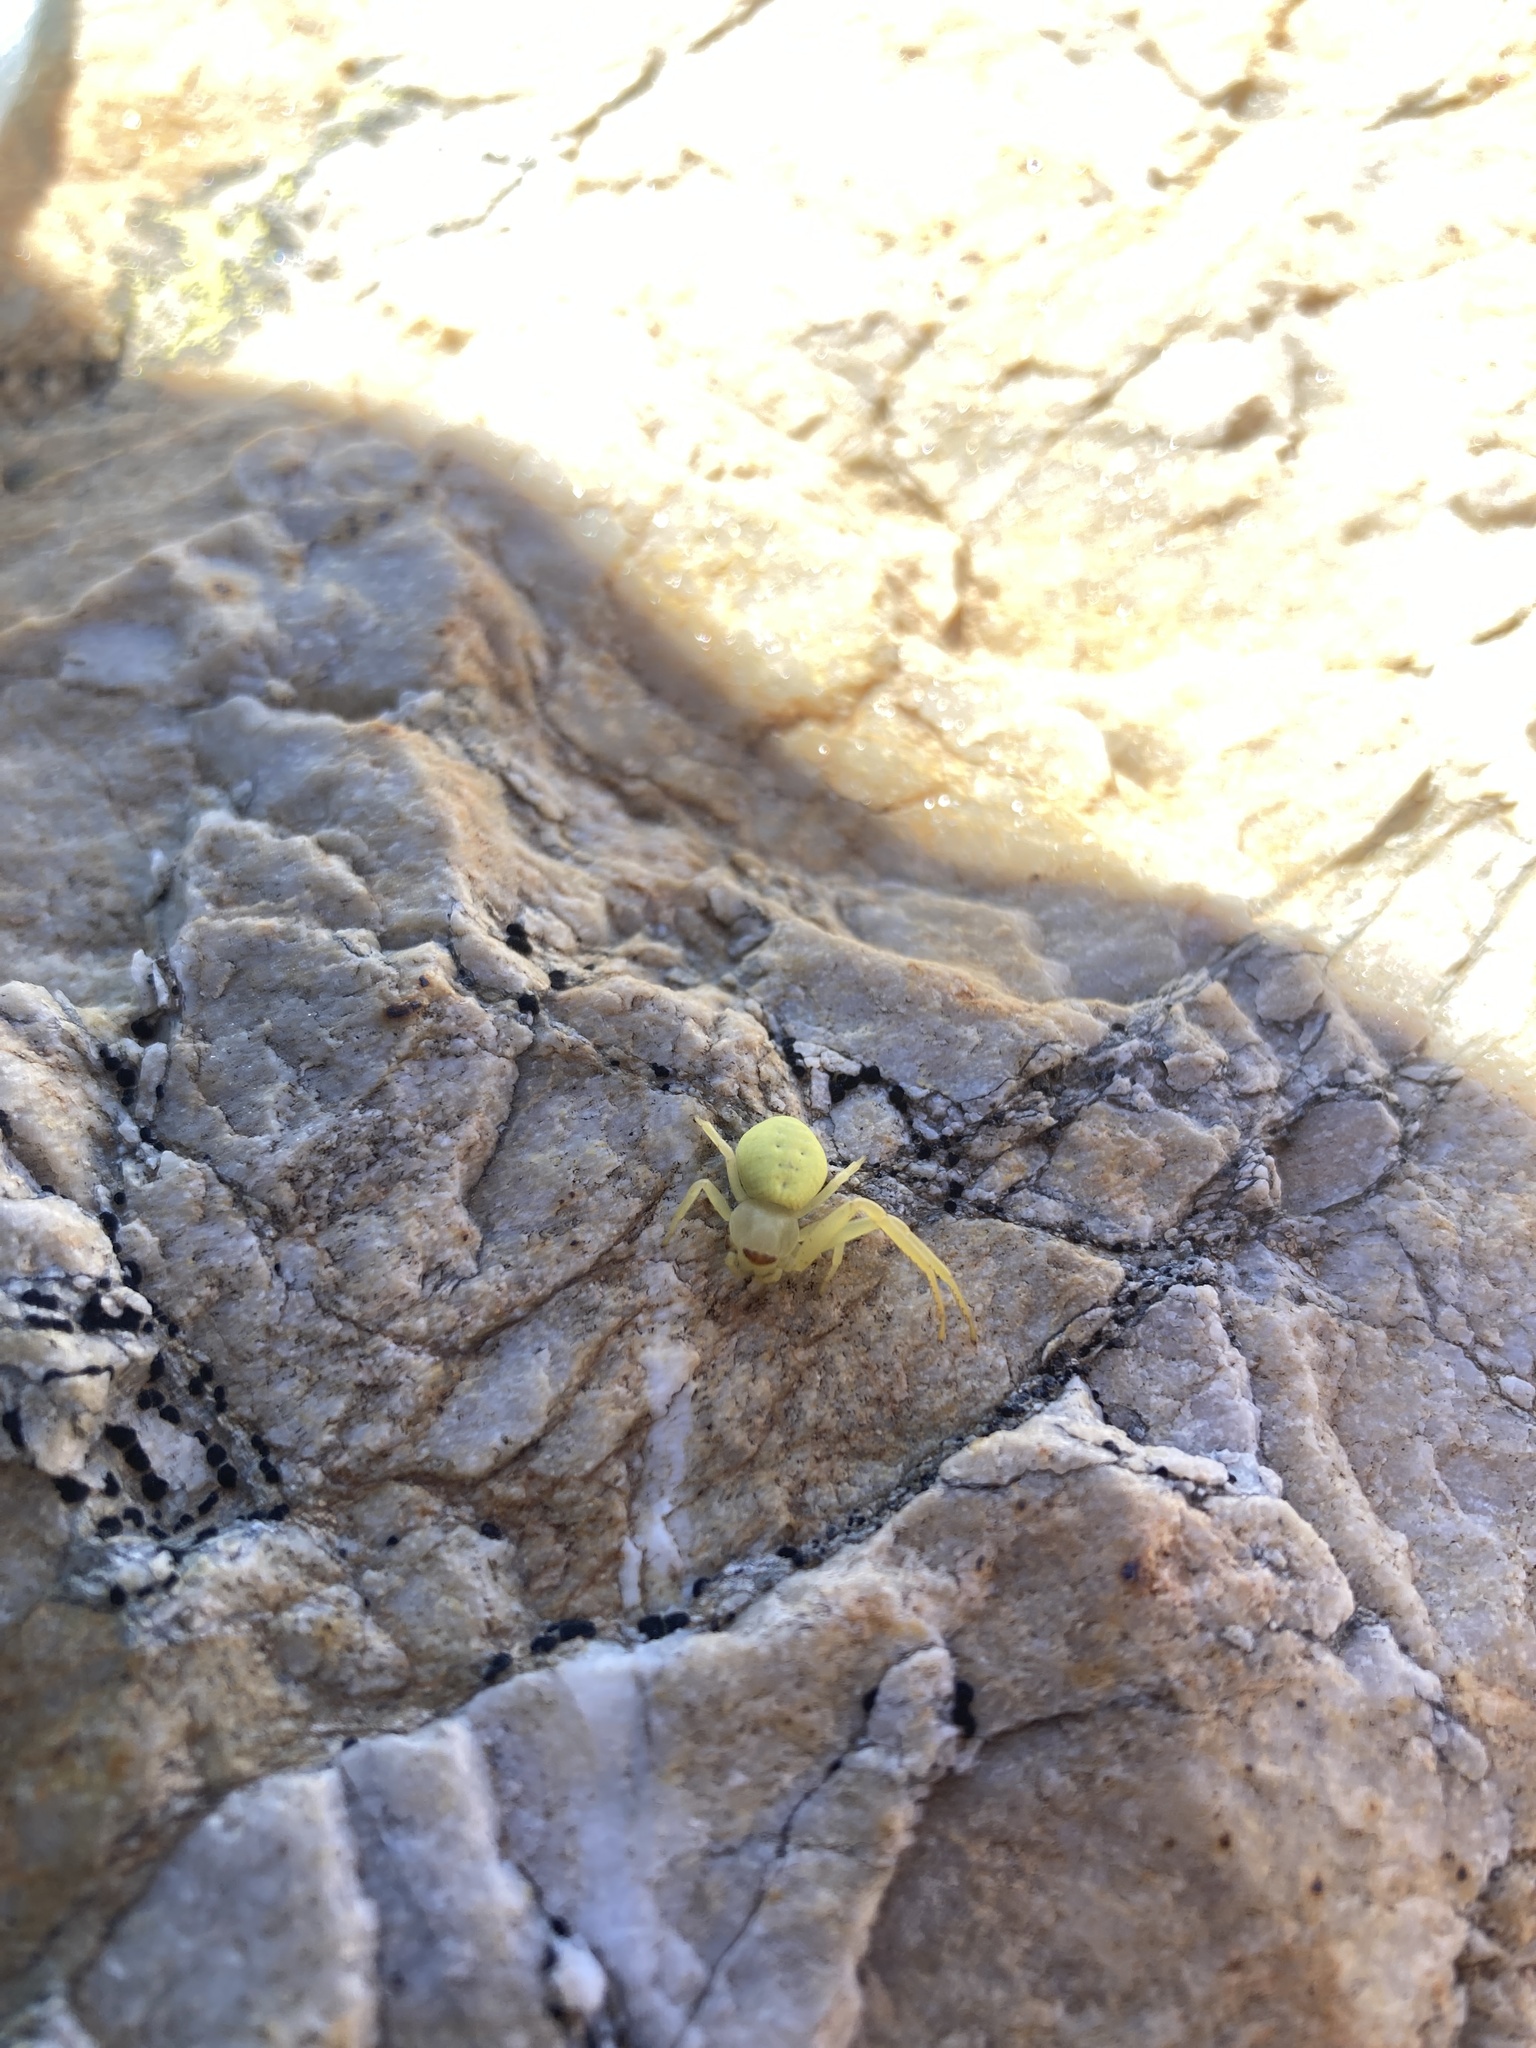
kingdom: Animalia
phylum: Arthropoda
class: Arachnida
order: Araneae
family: Thomisidae
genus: Misumena
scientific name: Misumena vatia
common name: Goldenrod crab spider
